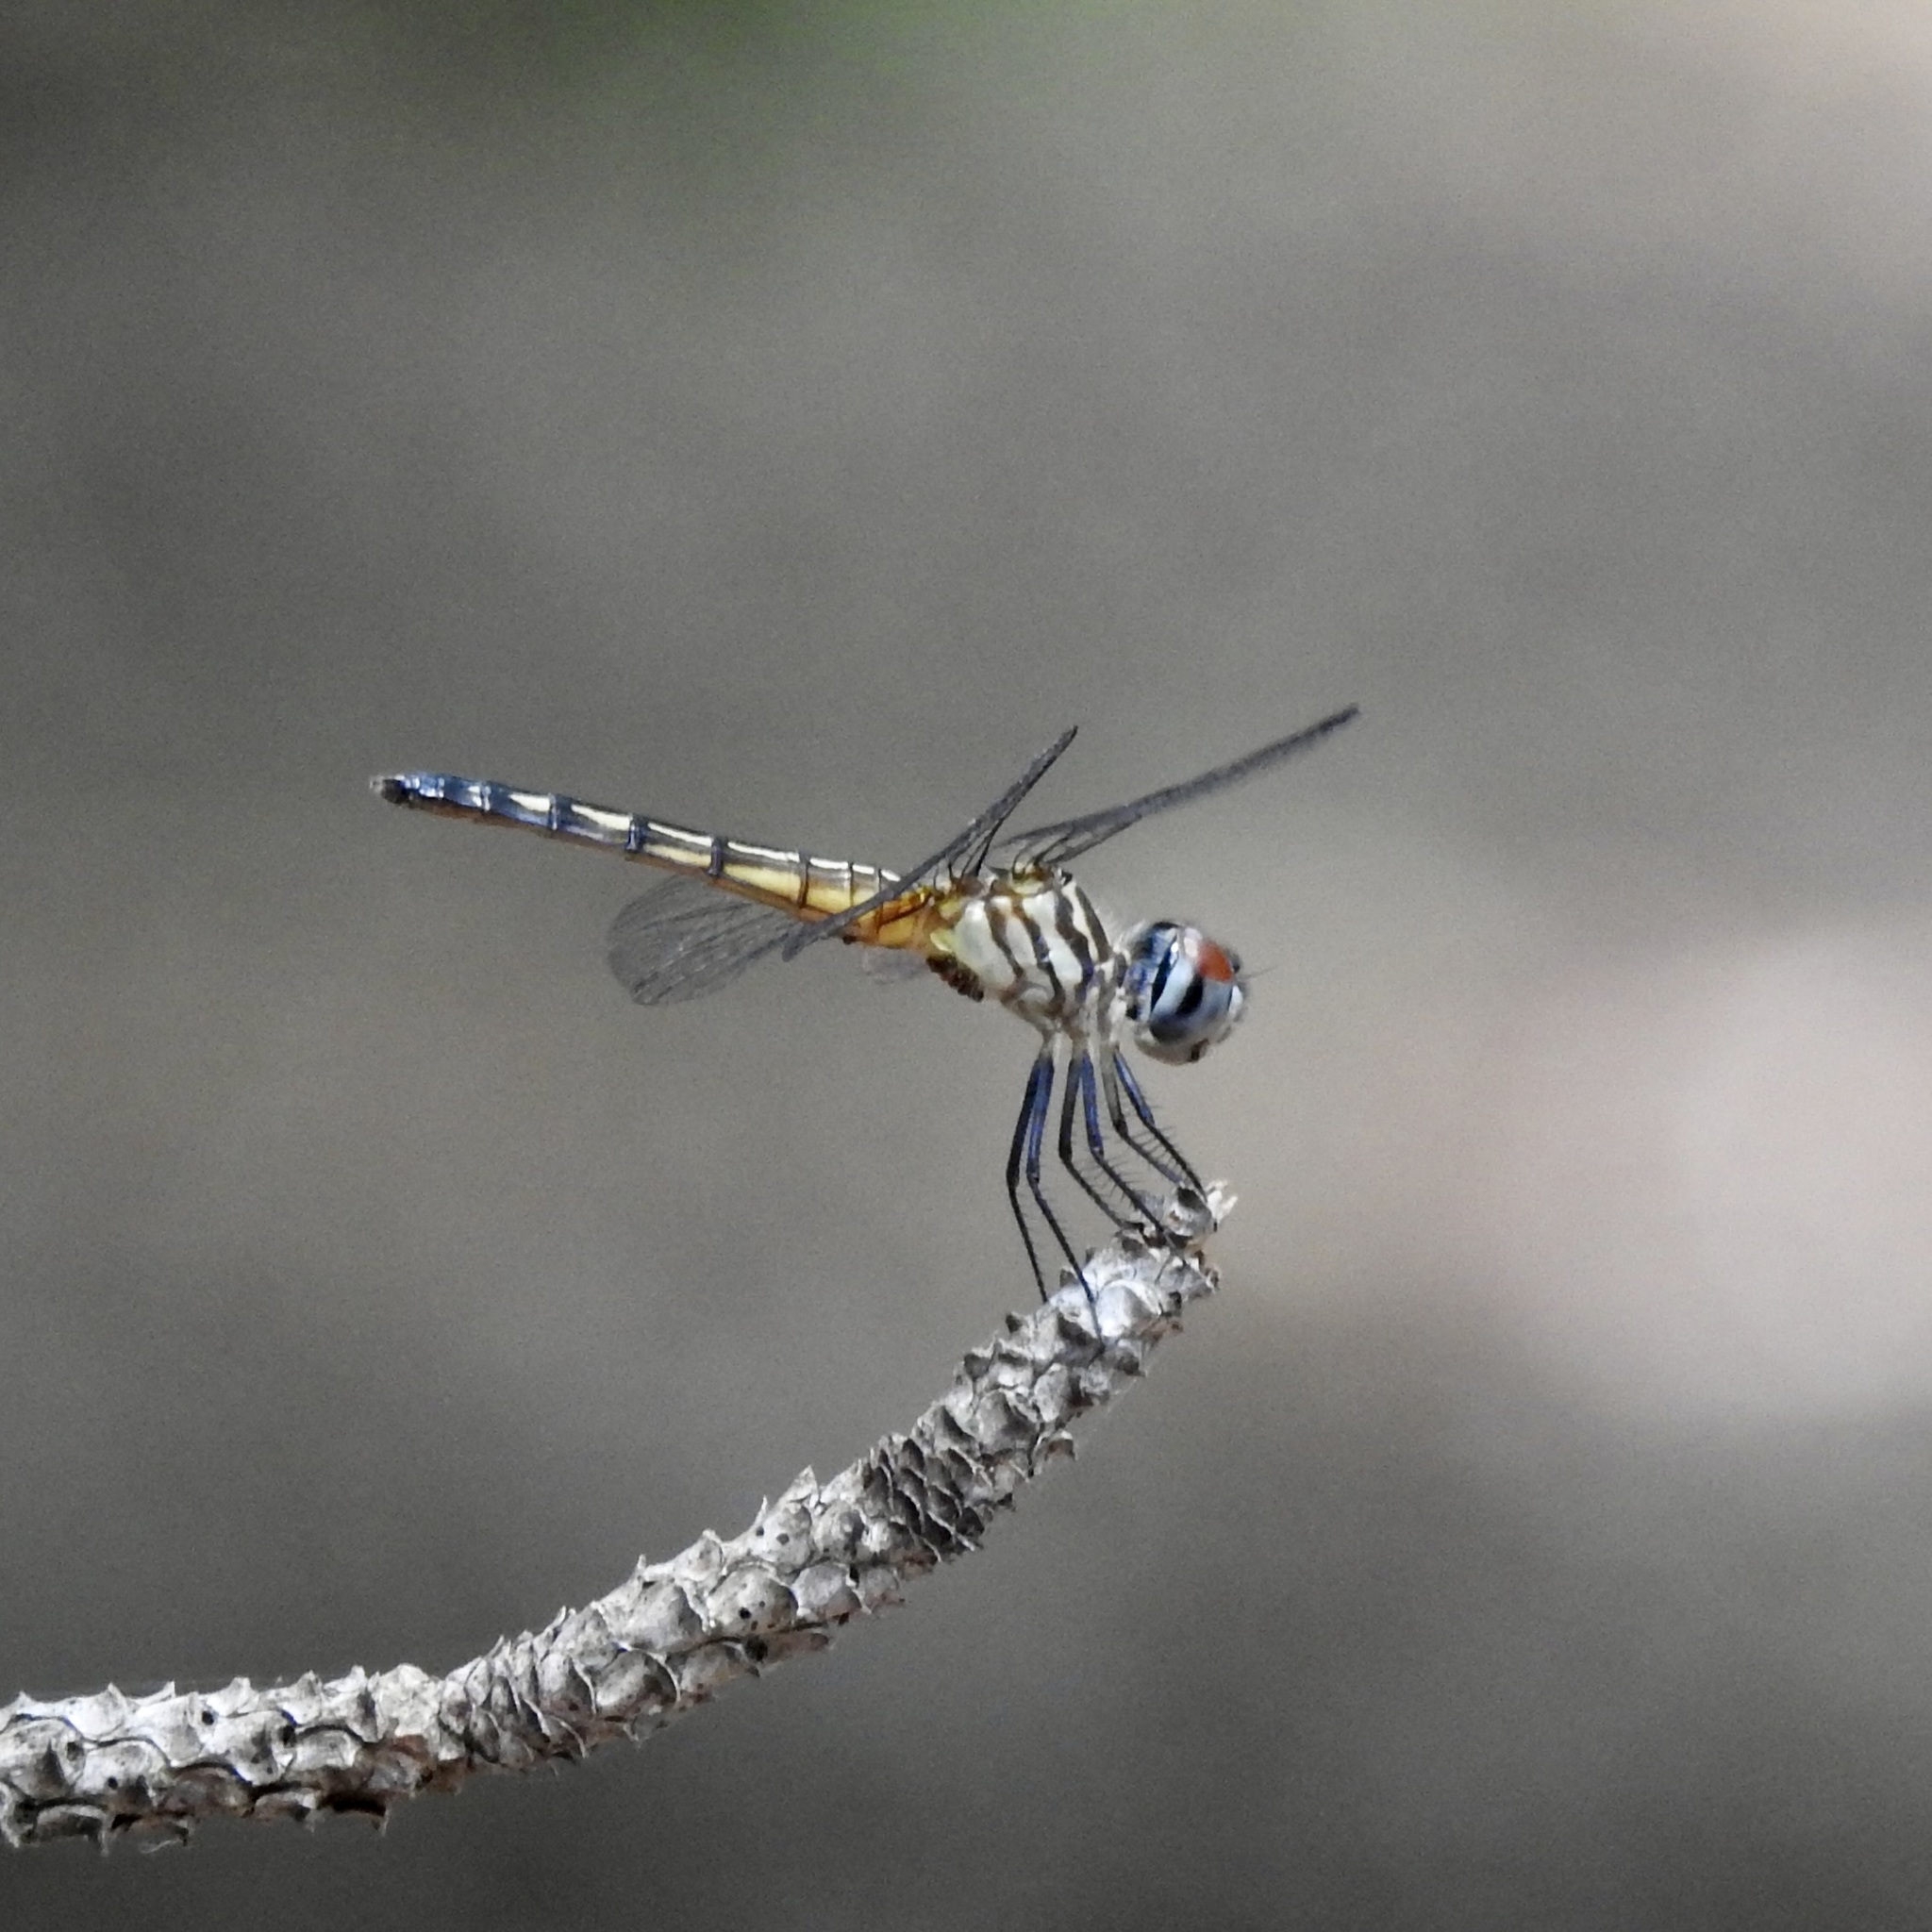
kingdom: Animalia
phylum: Arthropoda
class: Insecta
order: Odonata
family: Libellulidae
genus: Pachydiplax
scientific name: Pachydiplax longipennis
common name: Blue dasher
